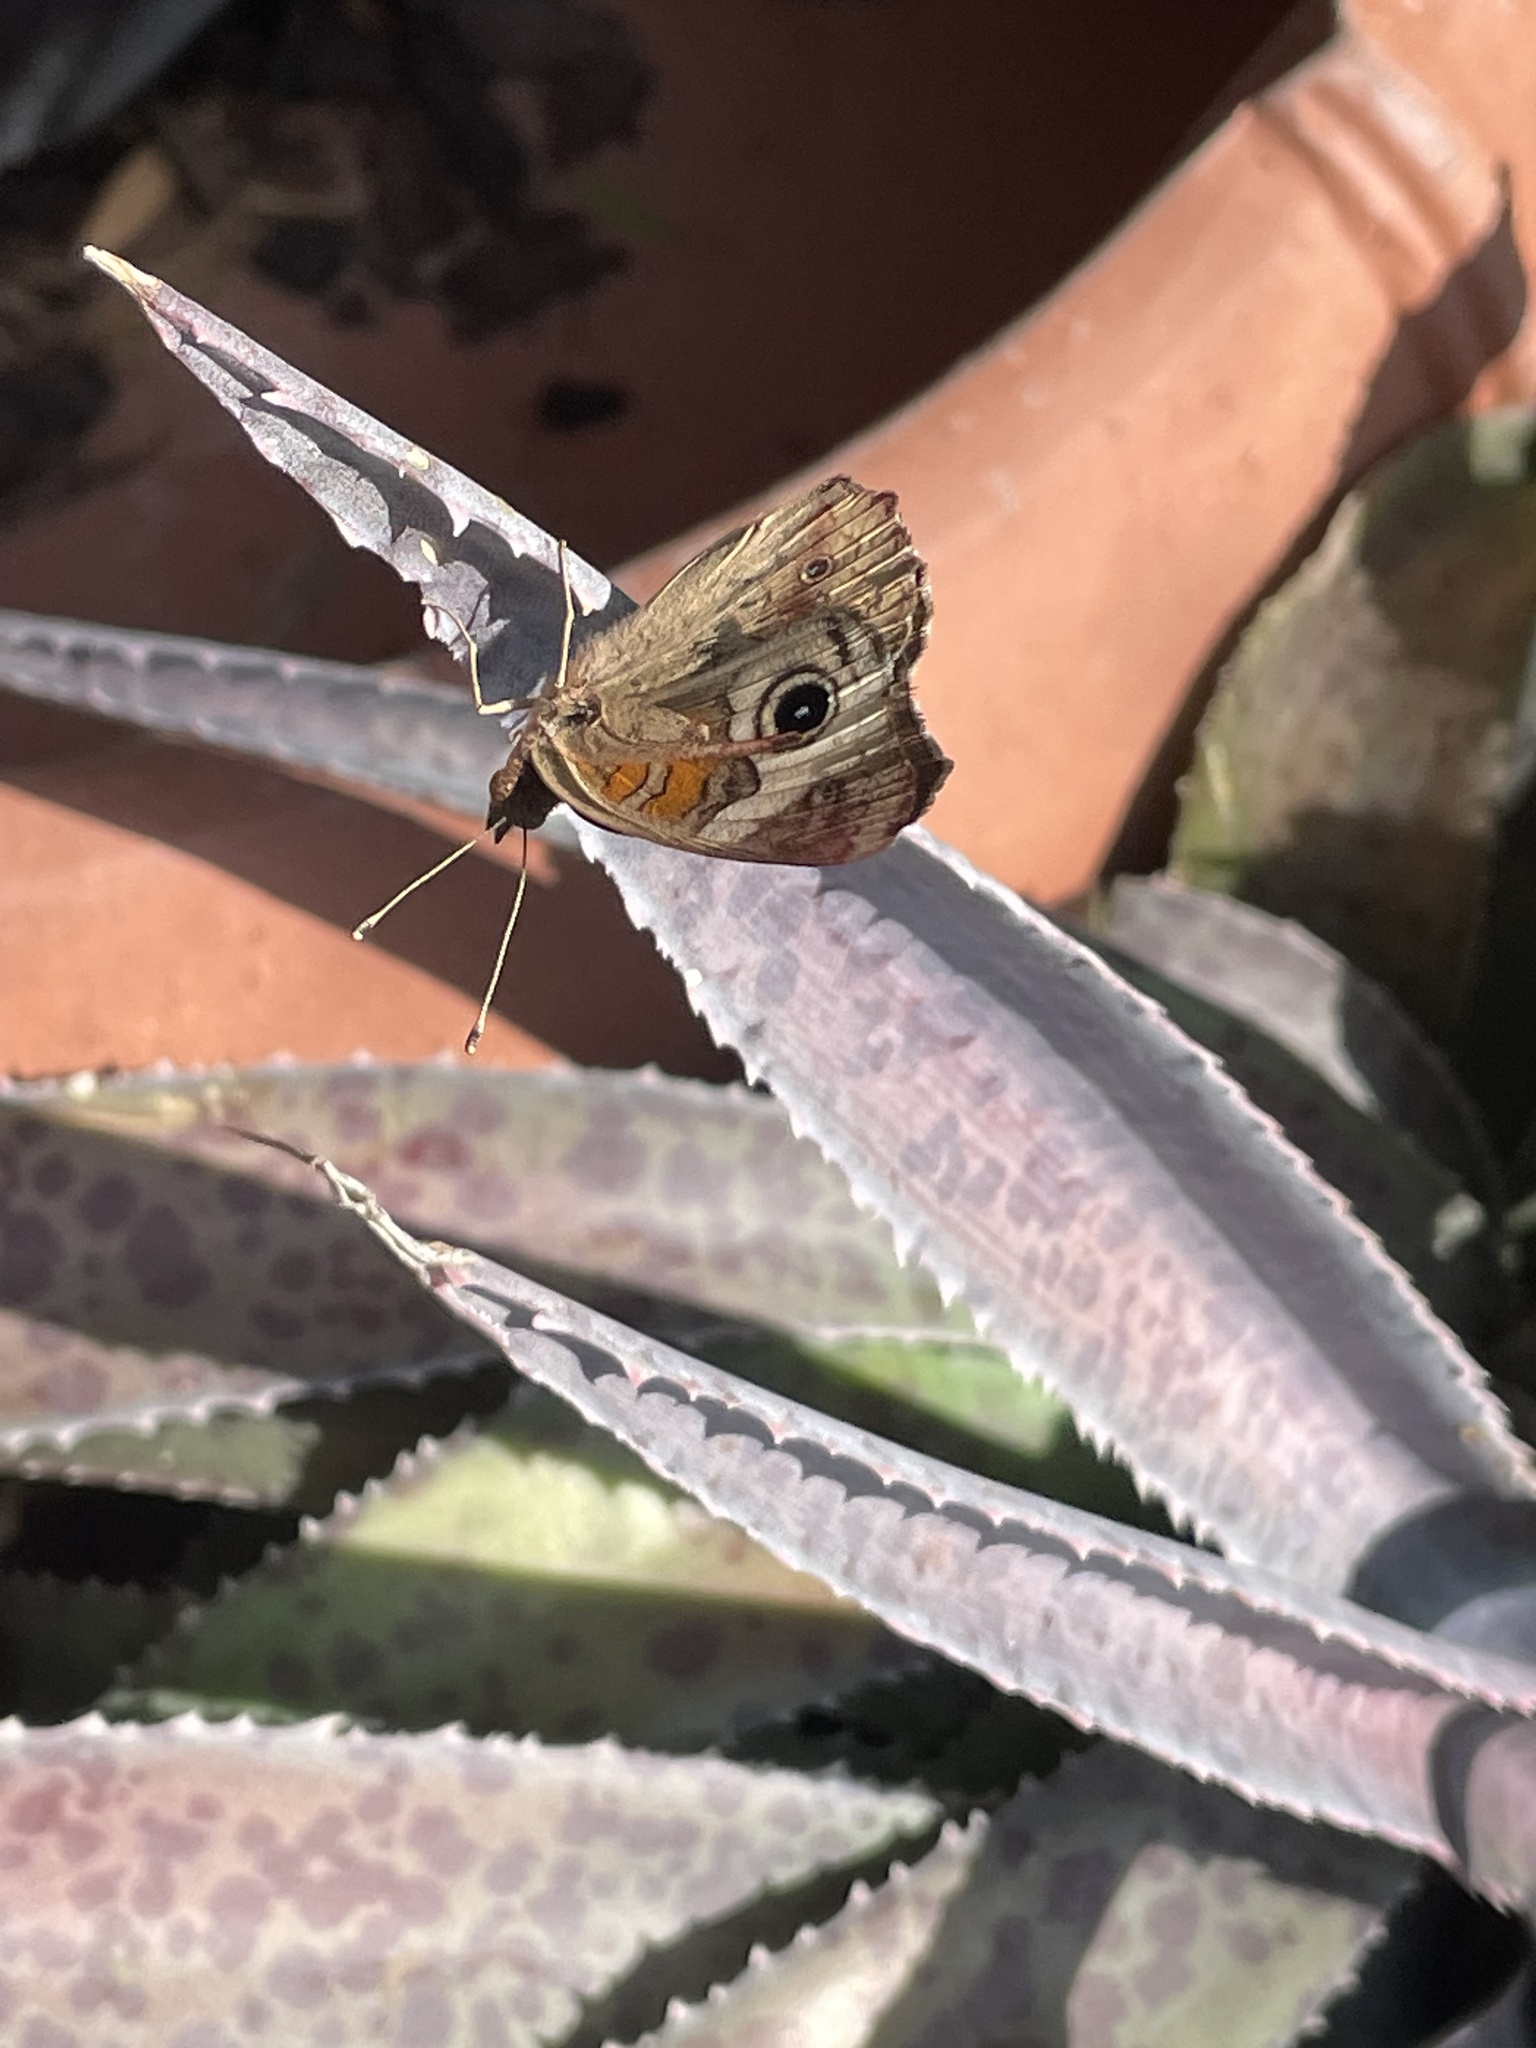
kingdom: Animalia
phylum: Arthropoda
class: Insecta
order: Lepidoptera
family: Nymphalidae
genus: Junonia
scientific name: Junonia coenia
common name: Common buckeye
